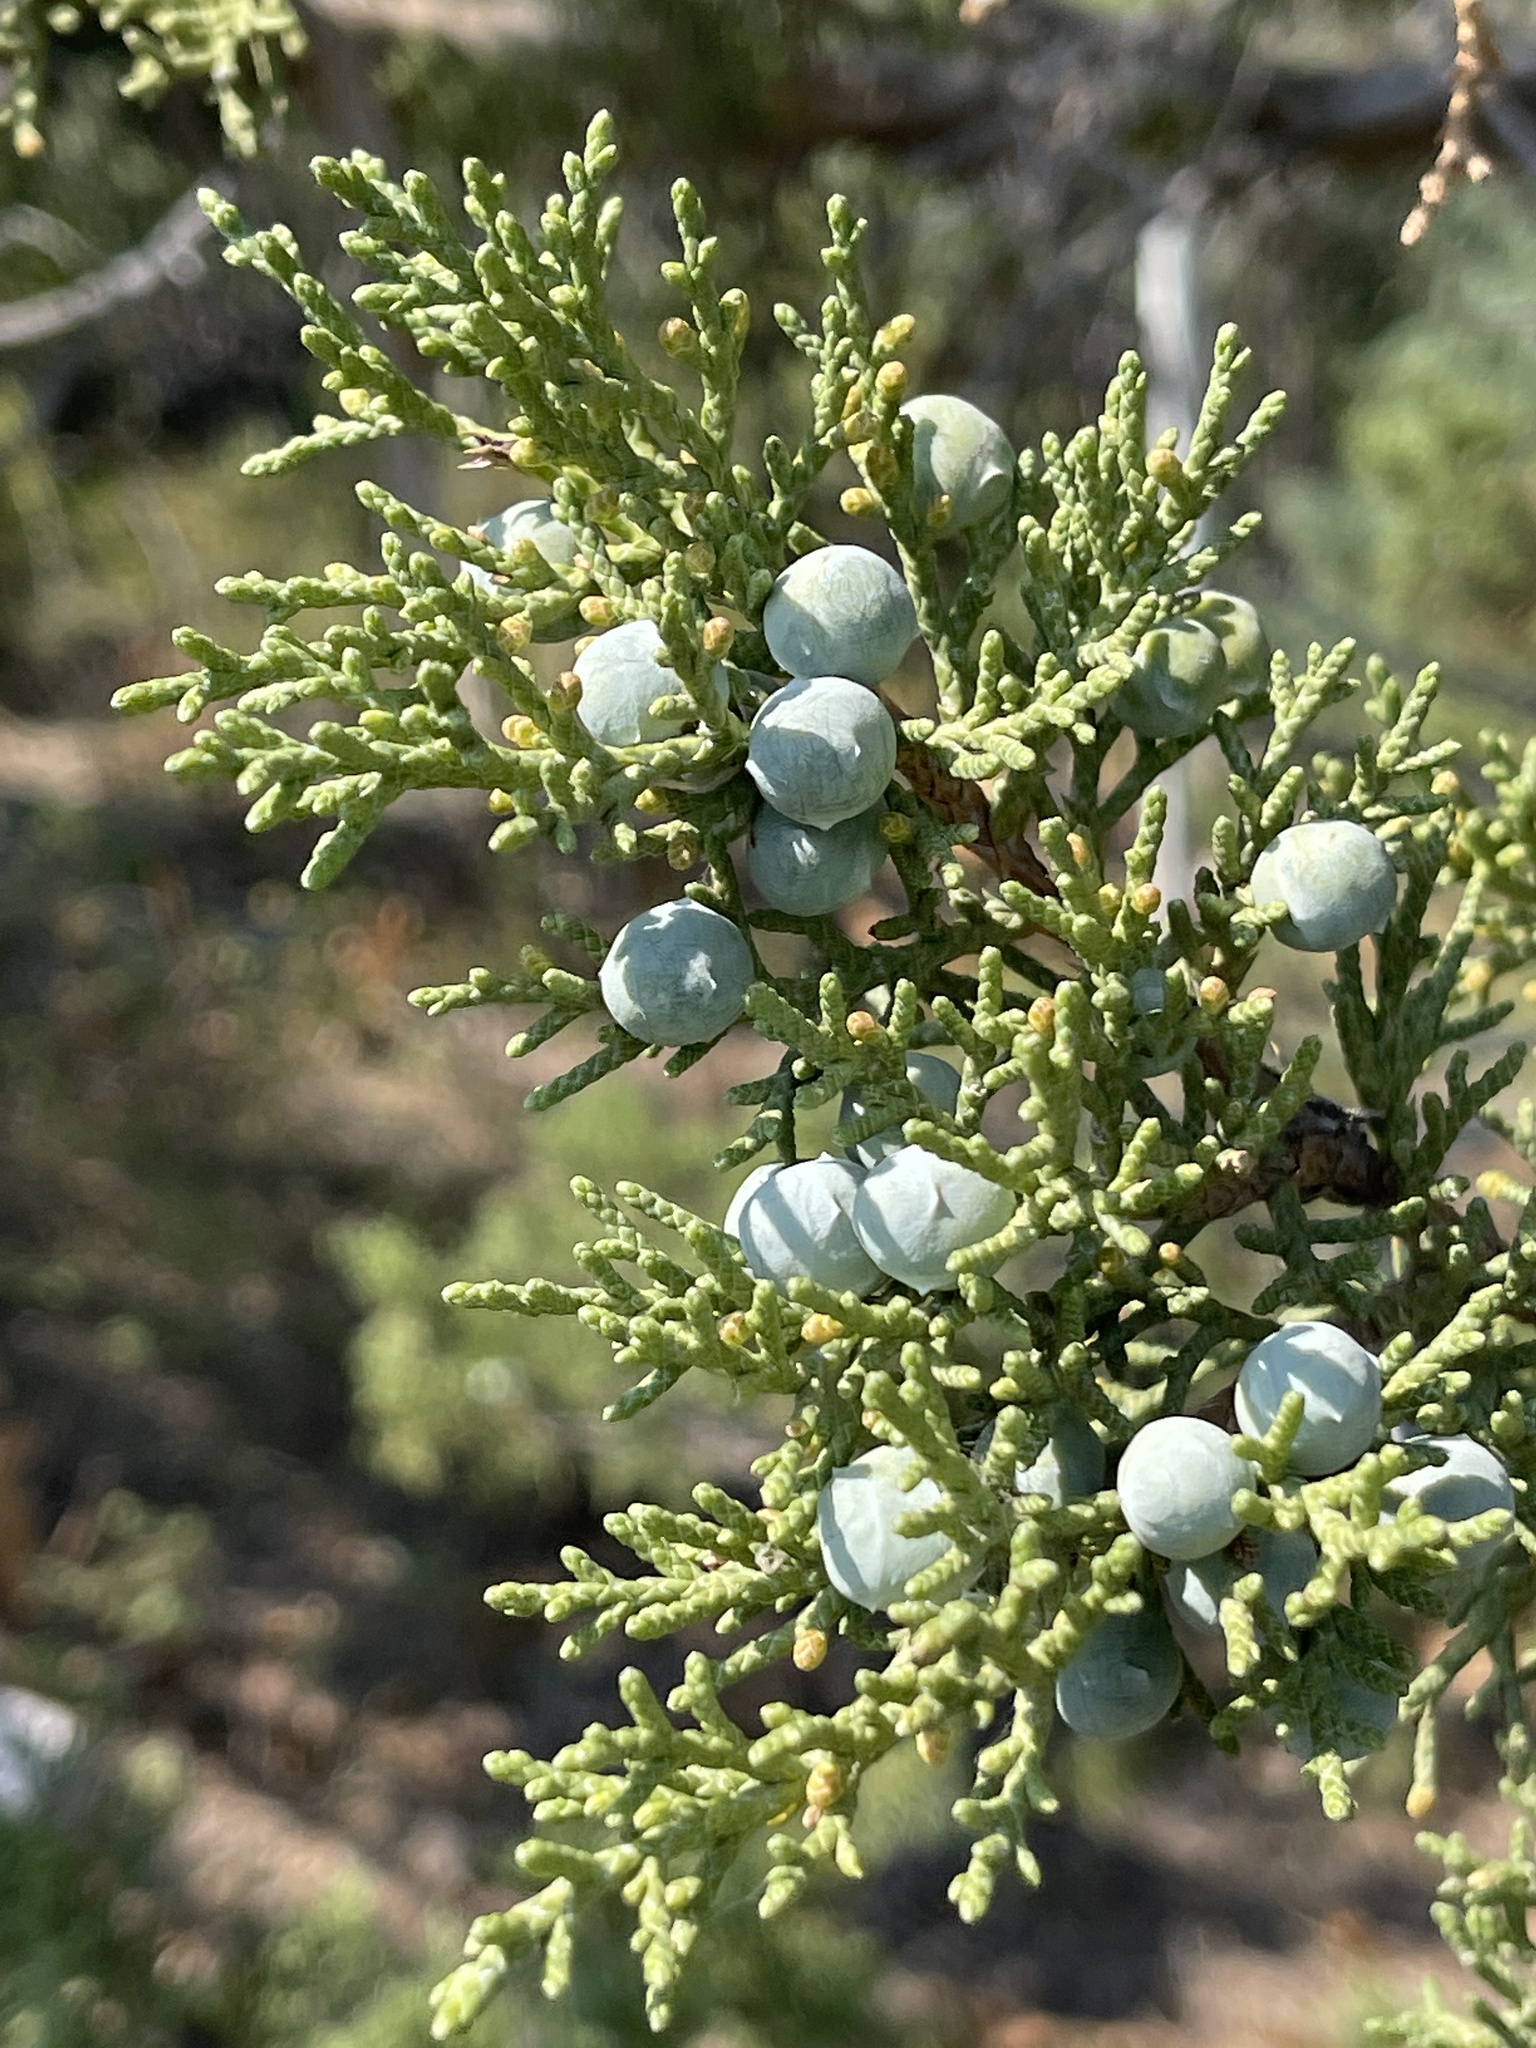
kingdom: Plantae
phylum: Tracheophyta
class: Pinopsida
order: Pinales
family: Cupressaceae
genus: Juniperus
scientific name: Juniperus osteosperma
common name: Utah juniper
